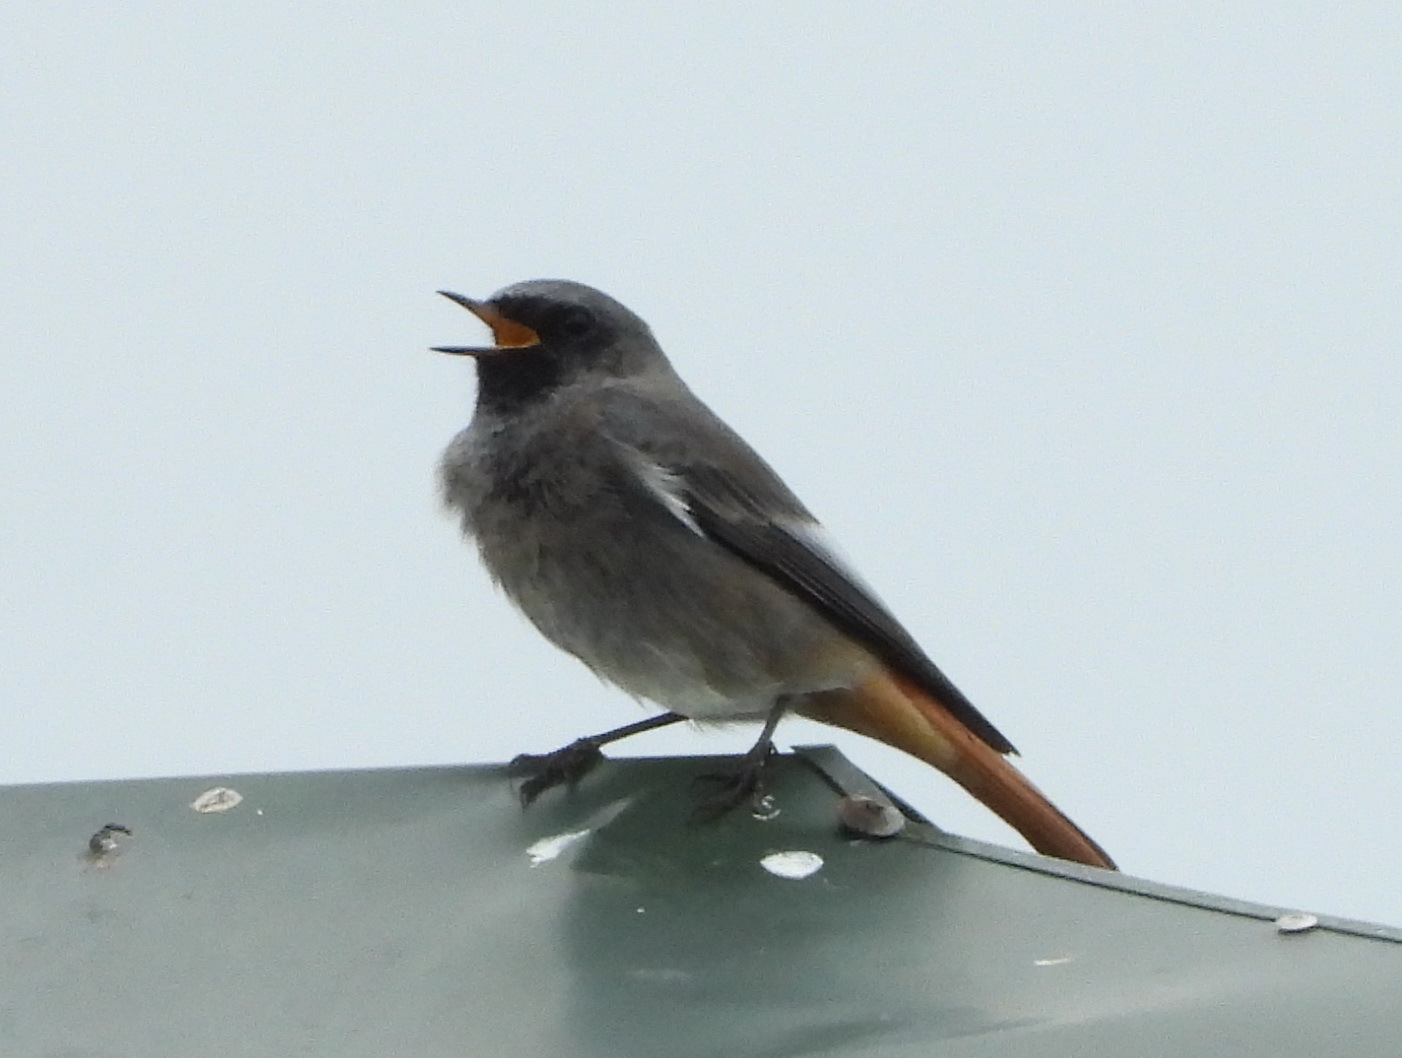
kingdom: Animalia
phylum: Chordata
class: Aves
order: Passeriformes
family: Muscicapidae
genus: Phoenicurus
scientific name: Phoenicurus ochruros
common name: Black redstart
